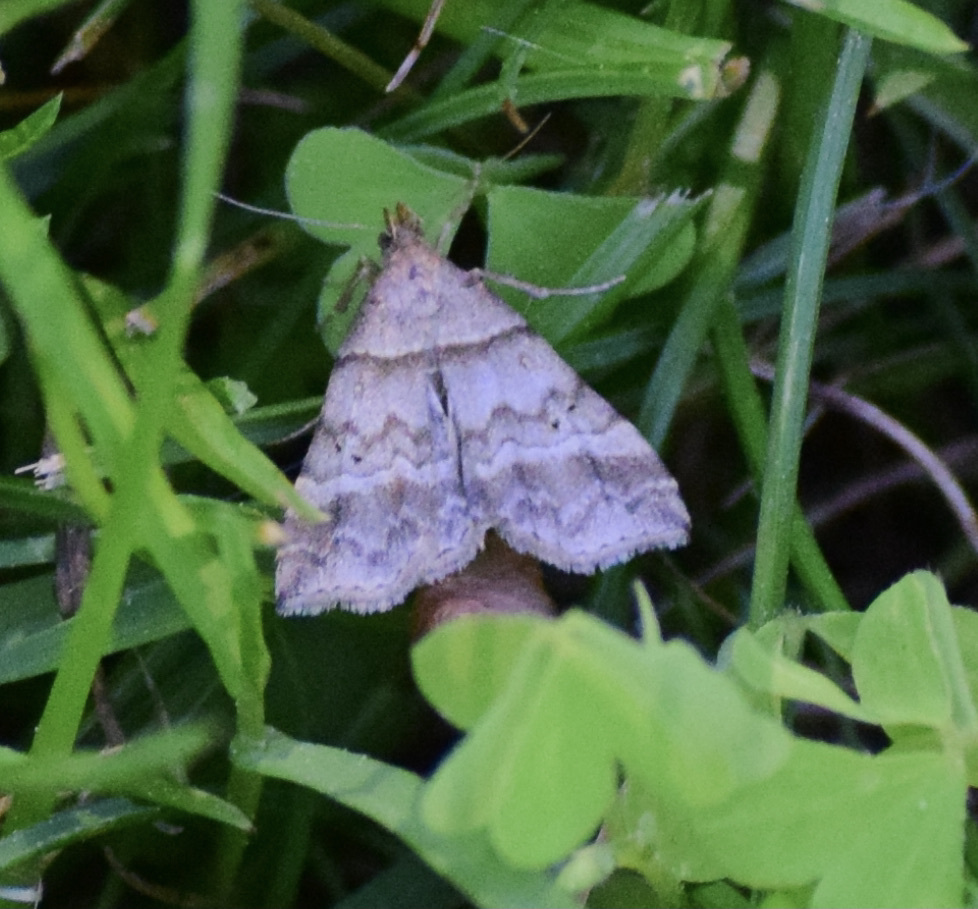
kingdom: Animalia
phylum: Arthropoda
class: Insecta
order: Lepidoptera
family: Erebidae
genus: Phaeolita
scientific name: Phaeolita pyramusalis
